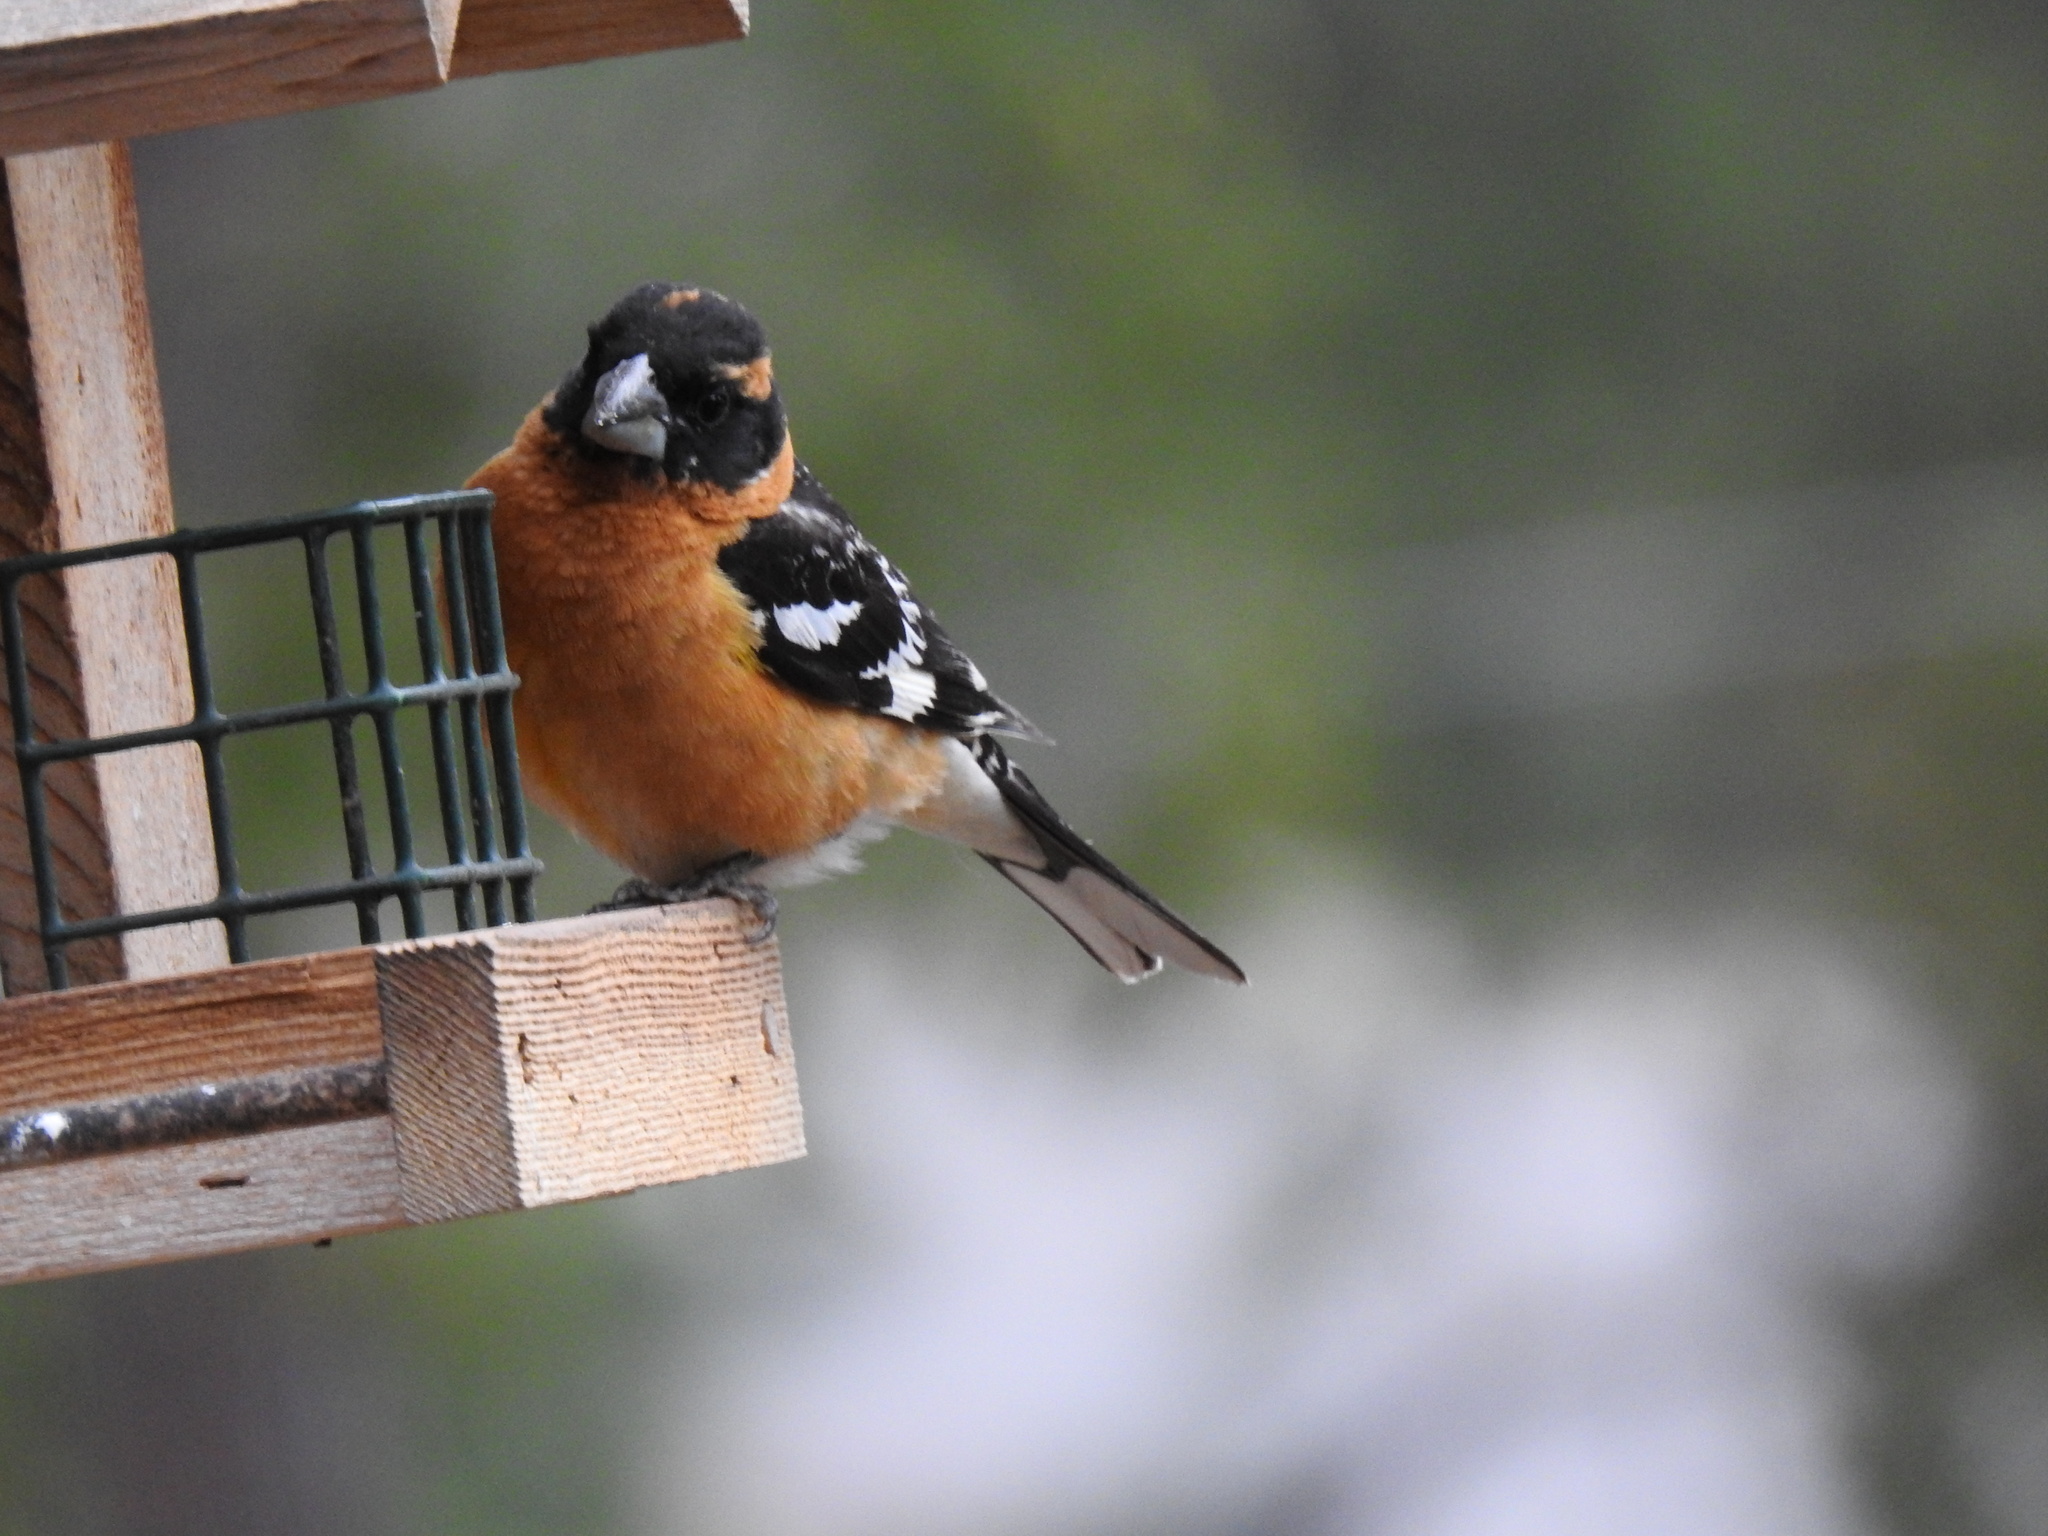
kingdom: Animalia
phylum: Chordata
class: Aves
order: Passeriformes
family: Cardinalidae
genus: Pheucticus
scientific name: Pheucticus melanocephalus
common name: Black-headed grosbeak
